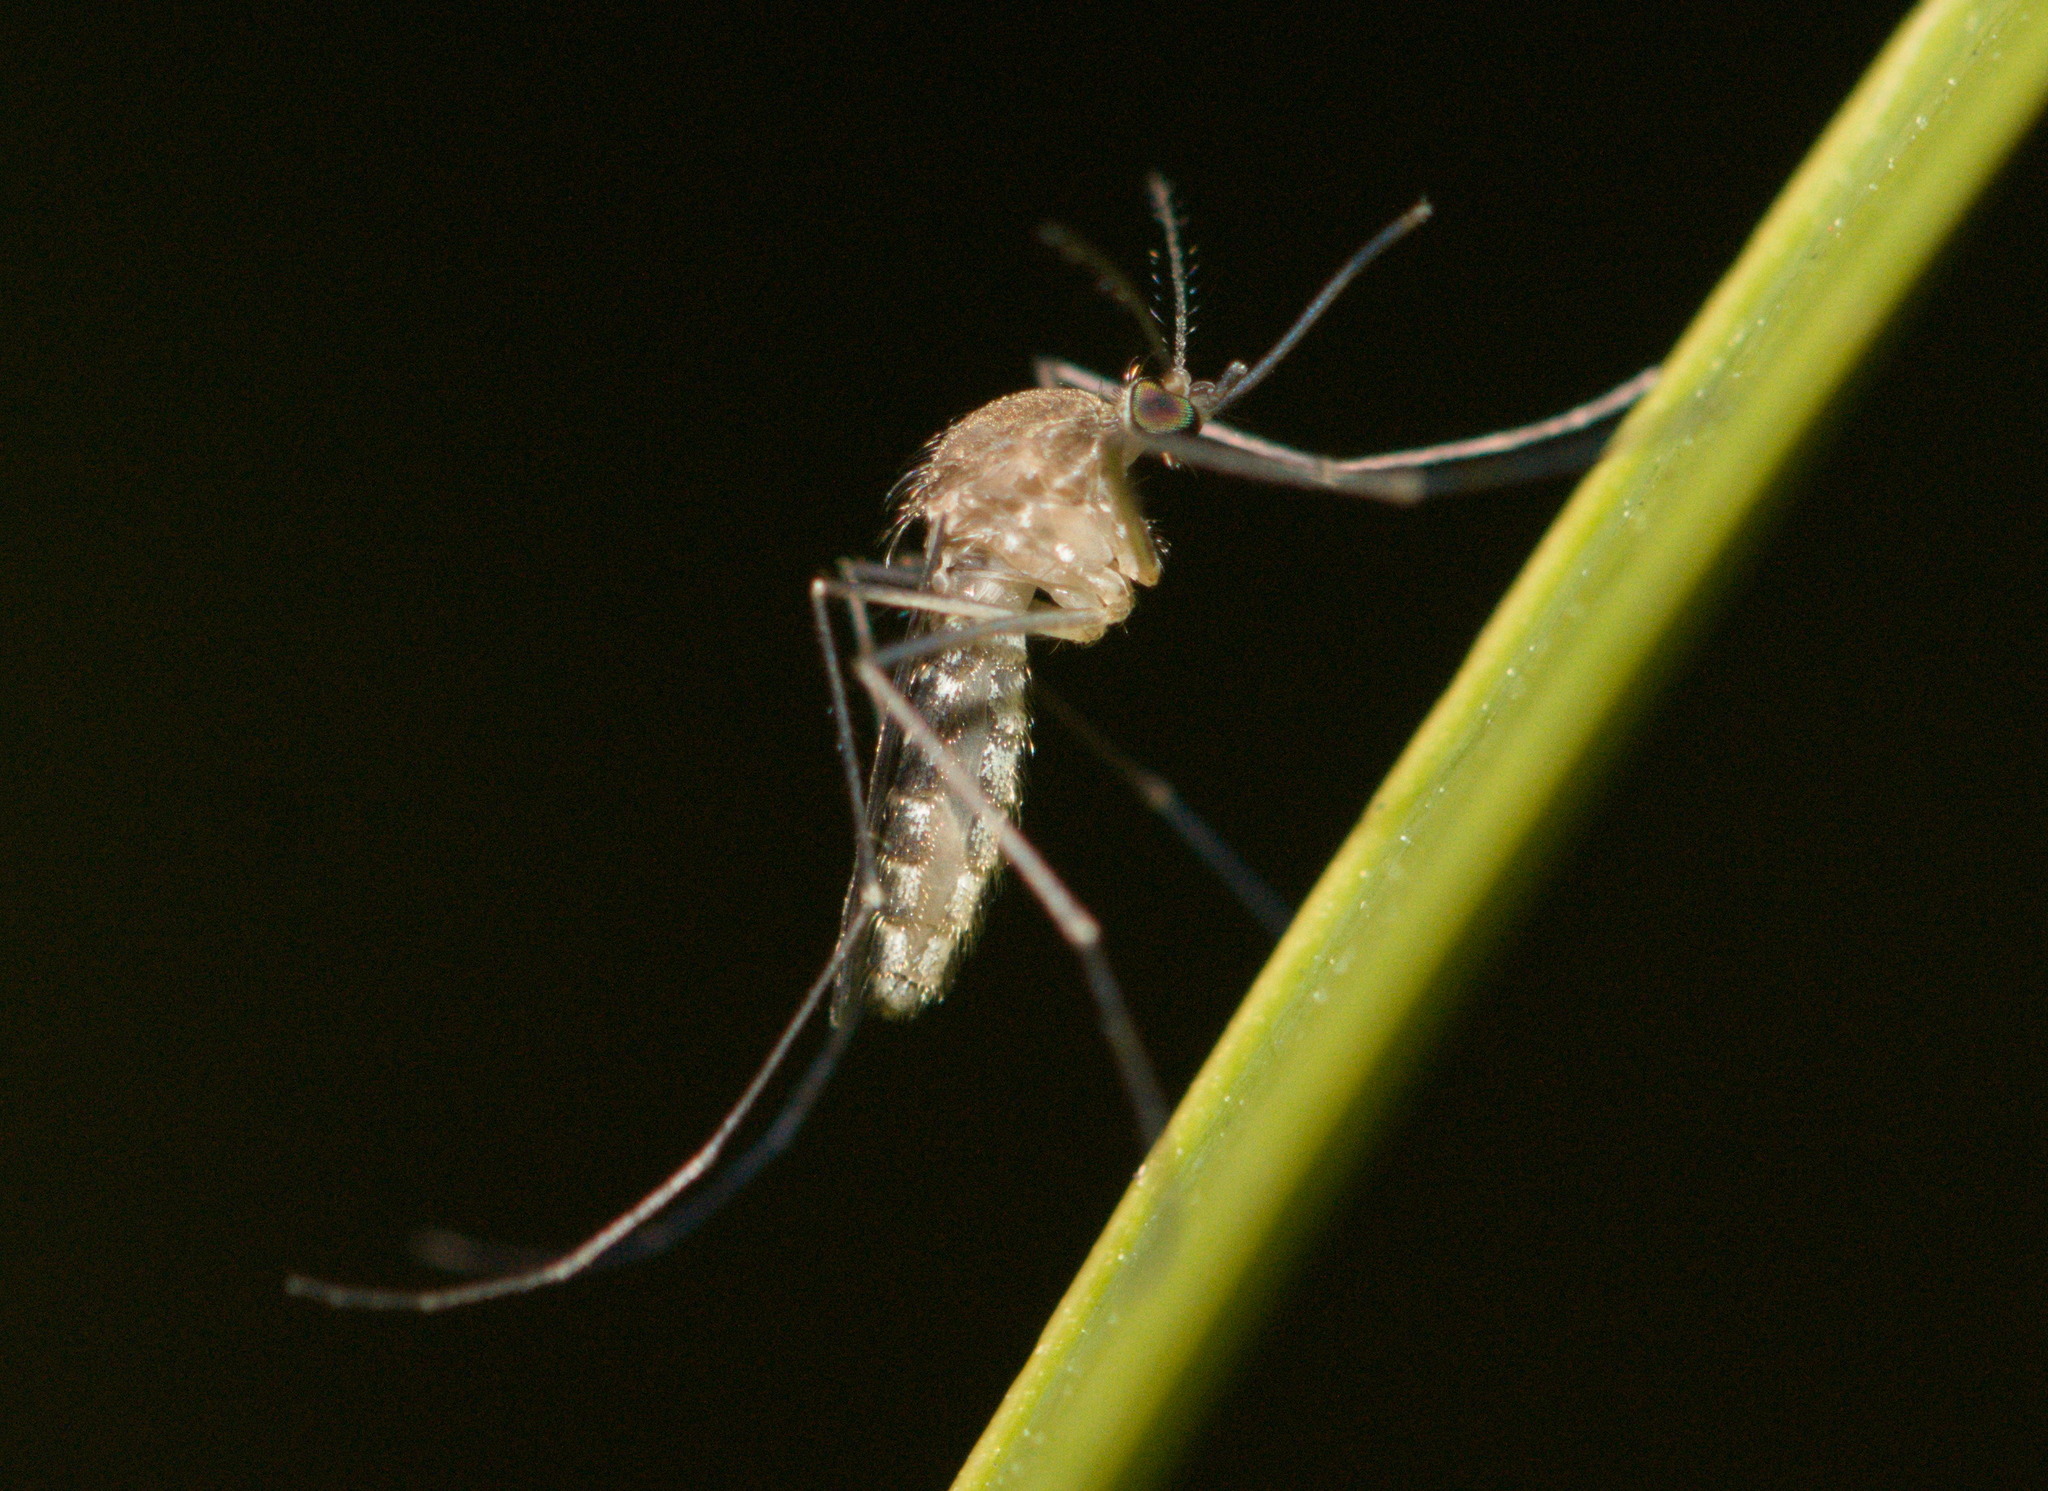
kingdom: Animalia
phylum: Arthropoda
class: Insecta
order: Diptera
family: Culicidae
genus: Culex
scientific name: Culex erraticus
